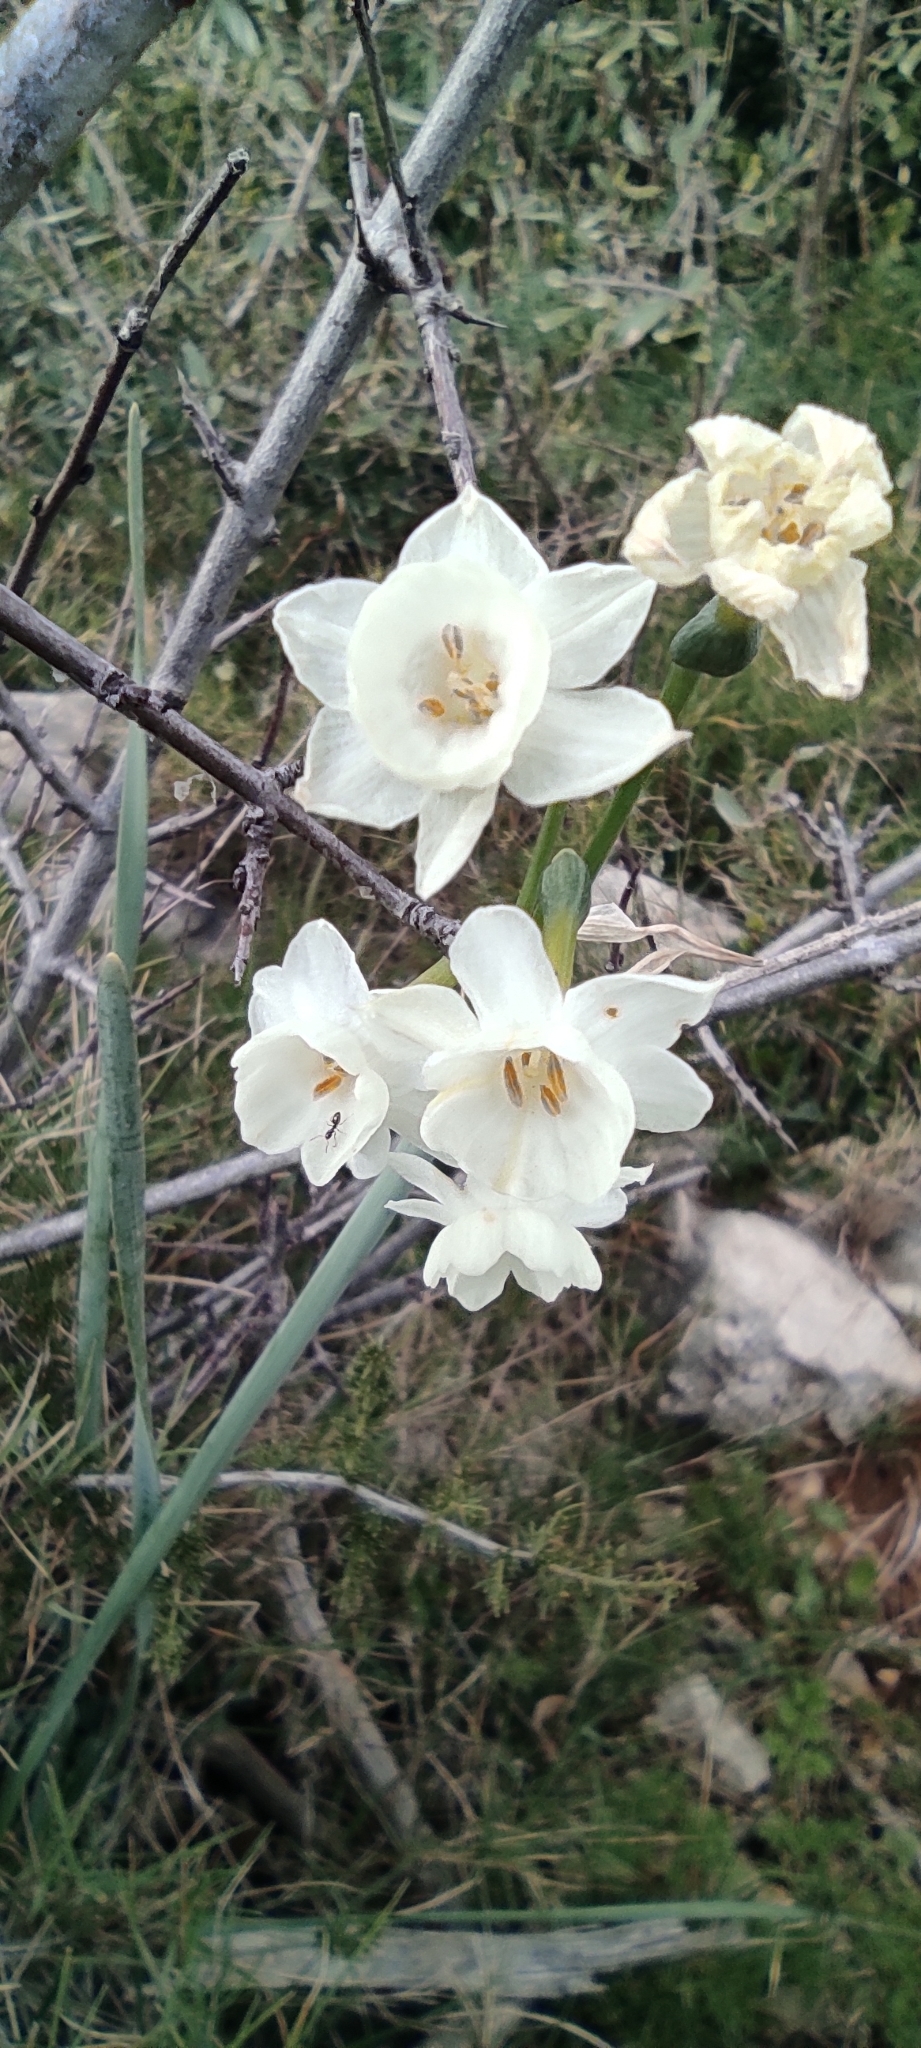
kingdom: Plantae
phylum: Tracheophyta
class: Liliopsida
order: Asparagales
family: Amaryllidaceae
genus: Narcissus
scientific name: Narcissus dubius
